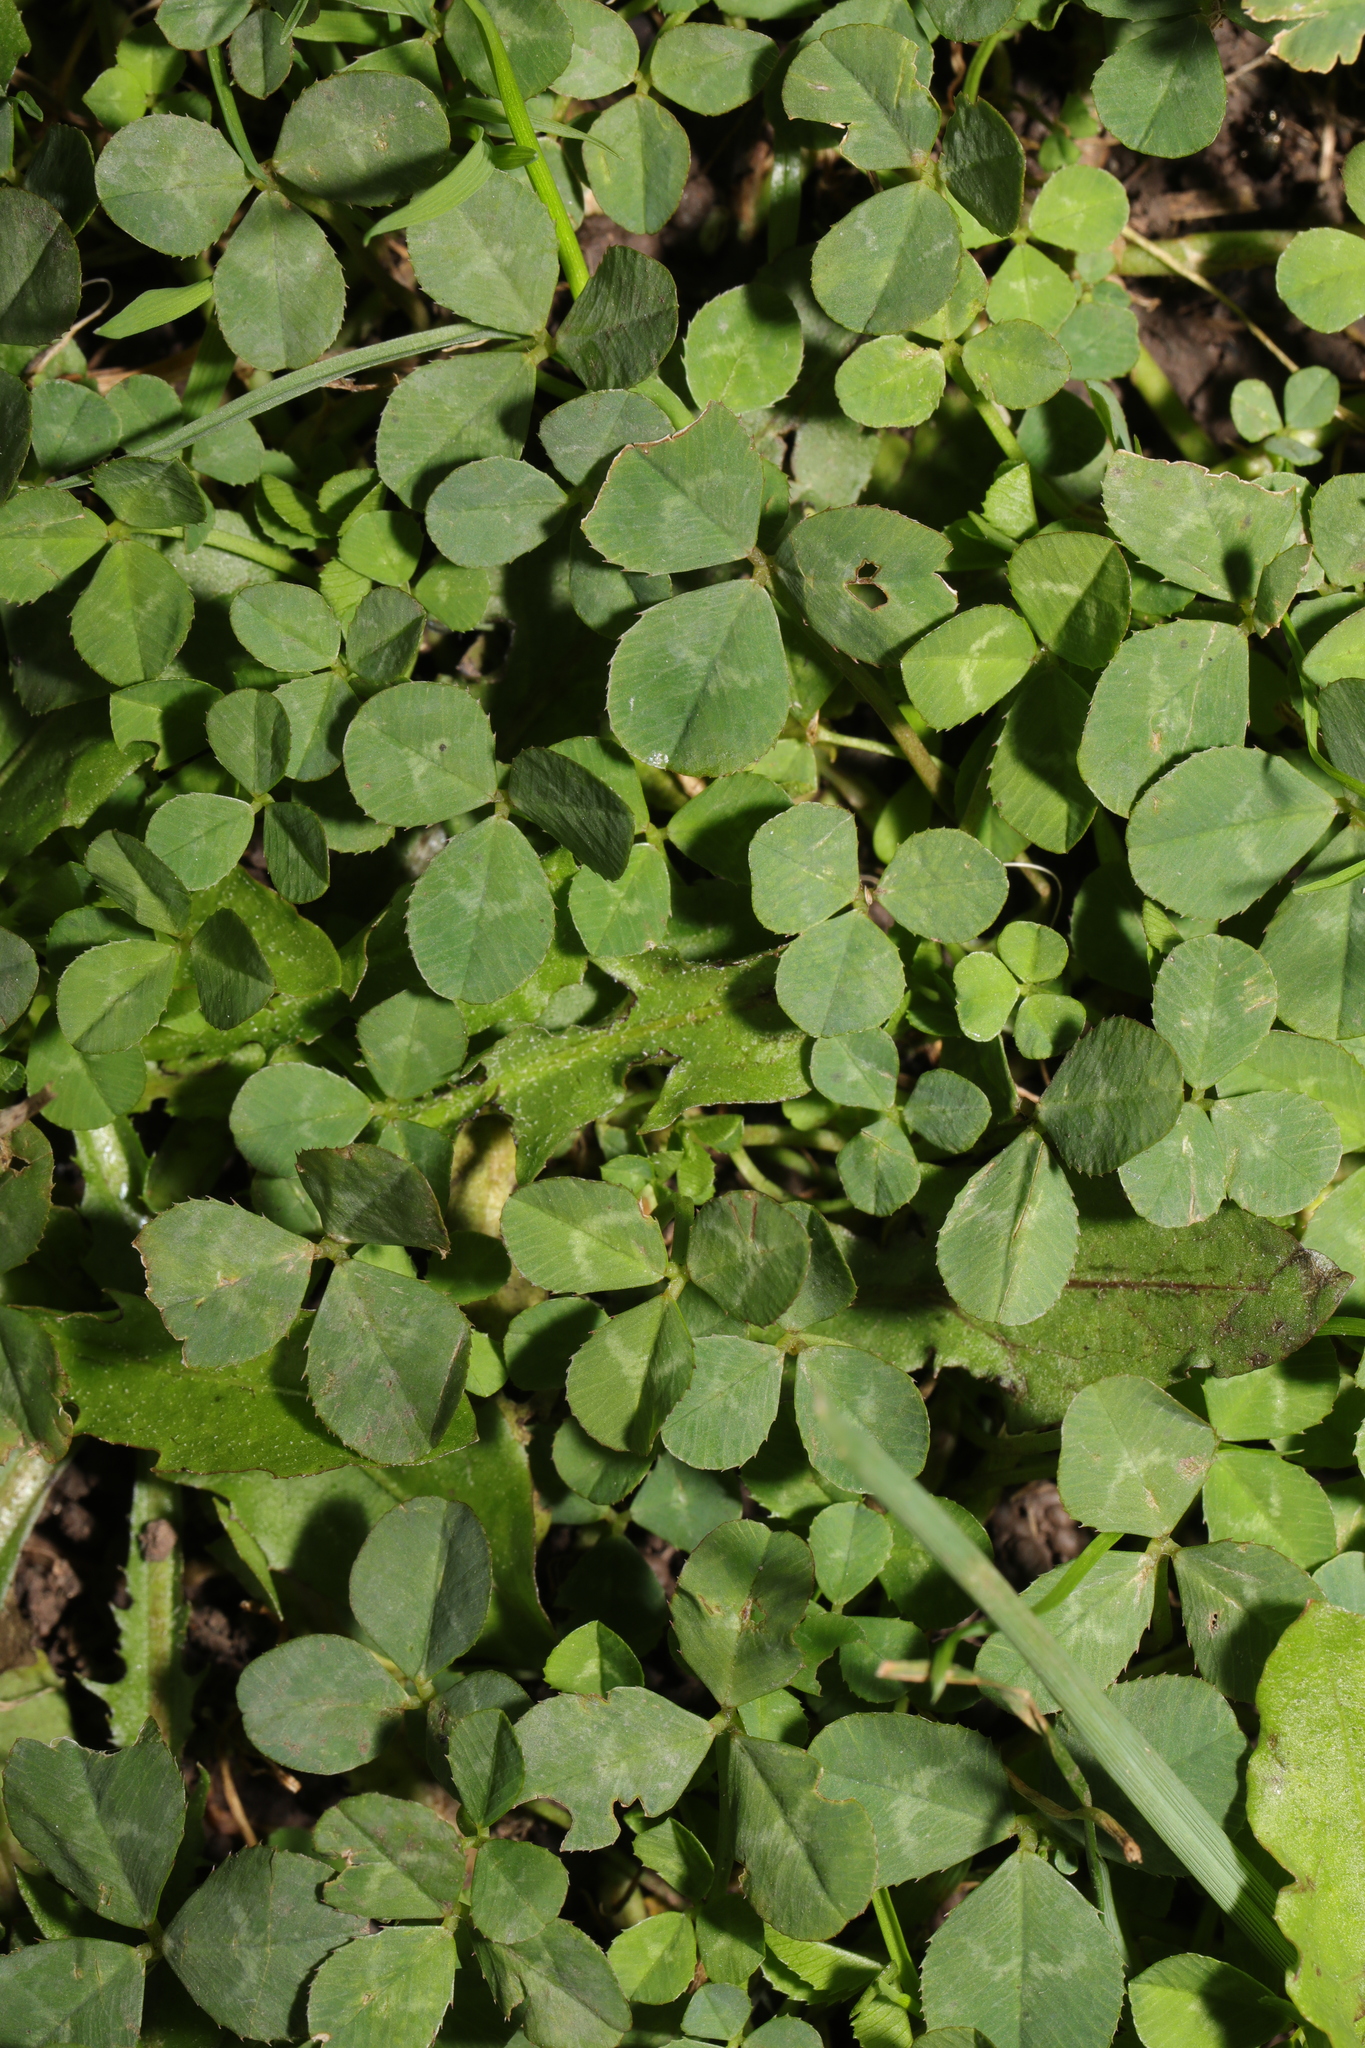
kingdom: Plantae
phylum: Tracheophyta
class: Magnoliopsida
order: Fabales
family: Fabaceae
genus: Trifolium
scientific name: Trifolium repens
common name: White clover
